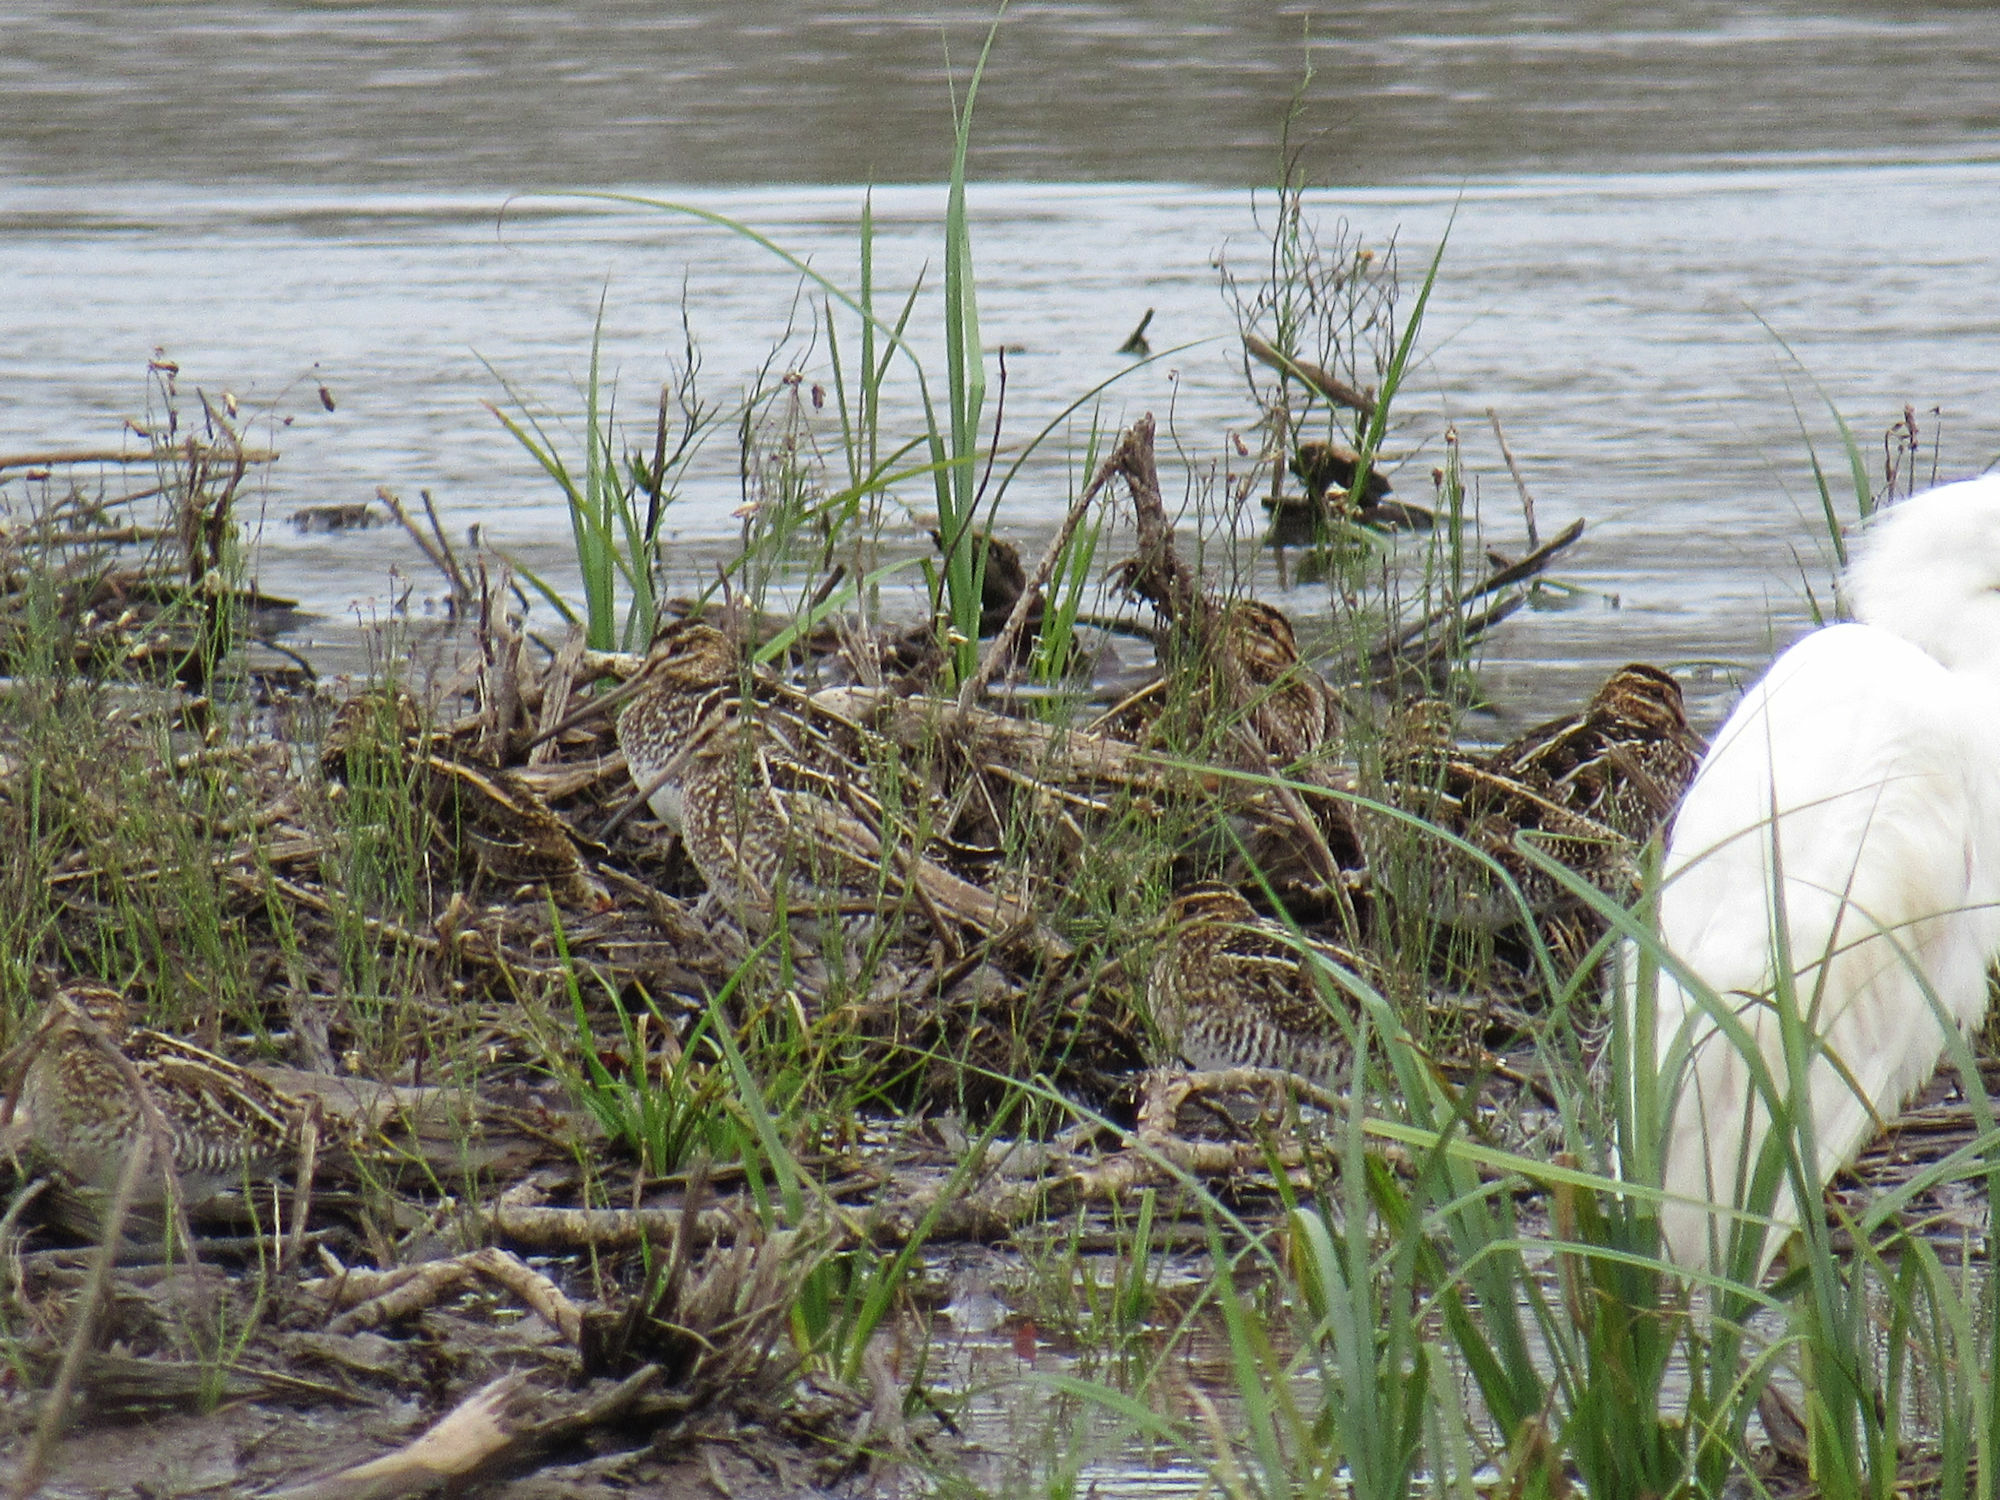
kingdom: Animalia
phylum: Chordata
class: Aves
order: Charadriiformes
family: Scolopacidae
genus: Gallinago
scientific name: Gallinago delicata
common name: Wilson's snipe
